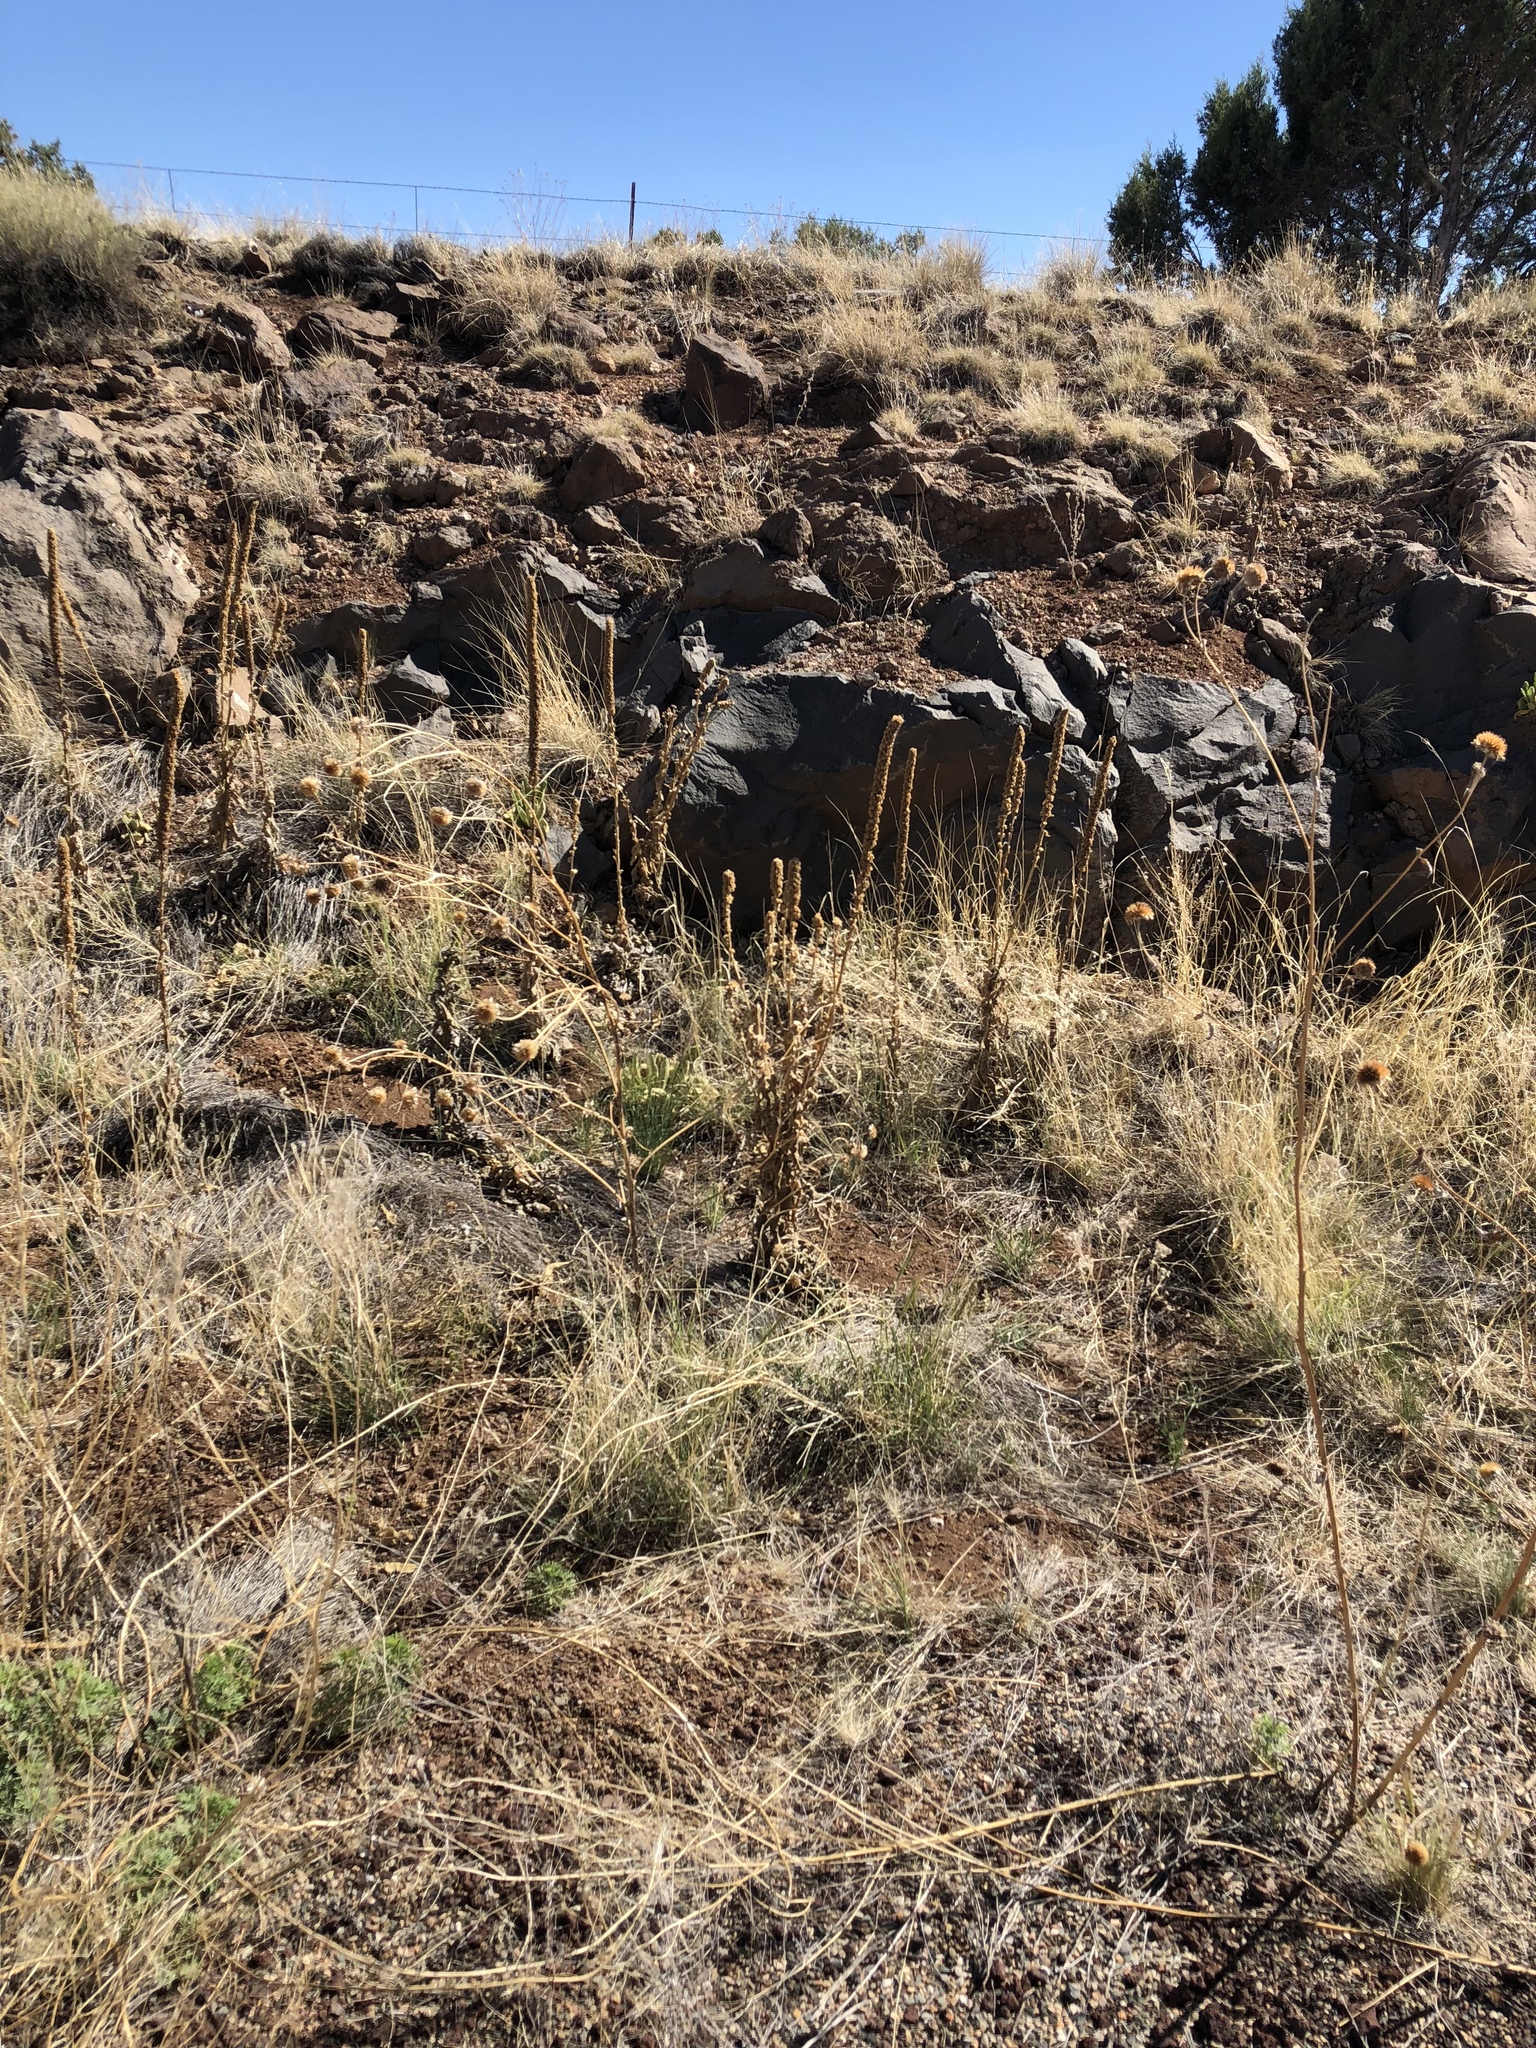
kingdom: Plantae
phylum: Tracheophyta
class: Magnoliopsida
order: Lamiales
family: Scrophulariaceae
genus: Verbascum
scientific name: Verbascum thapsus
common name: Common mullein
